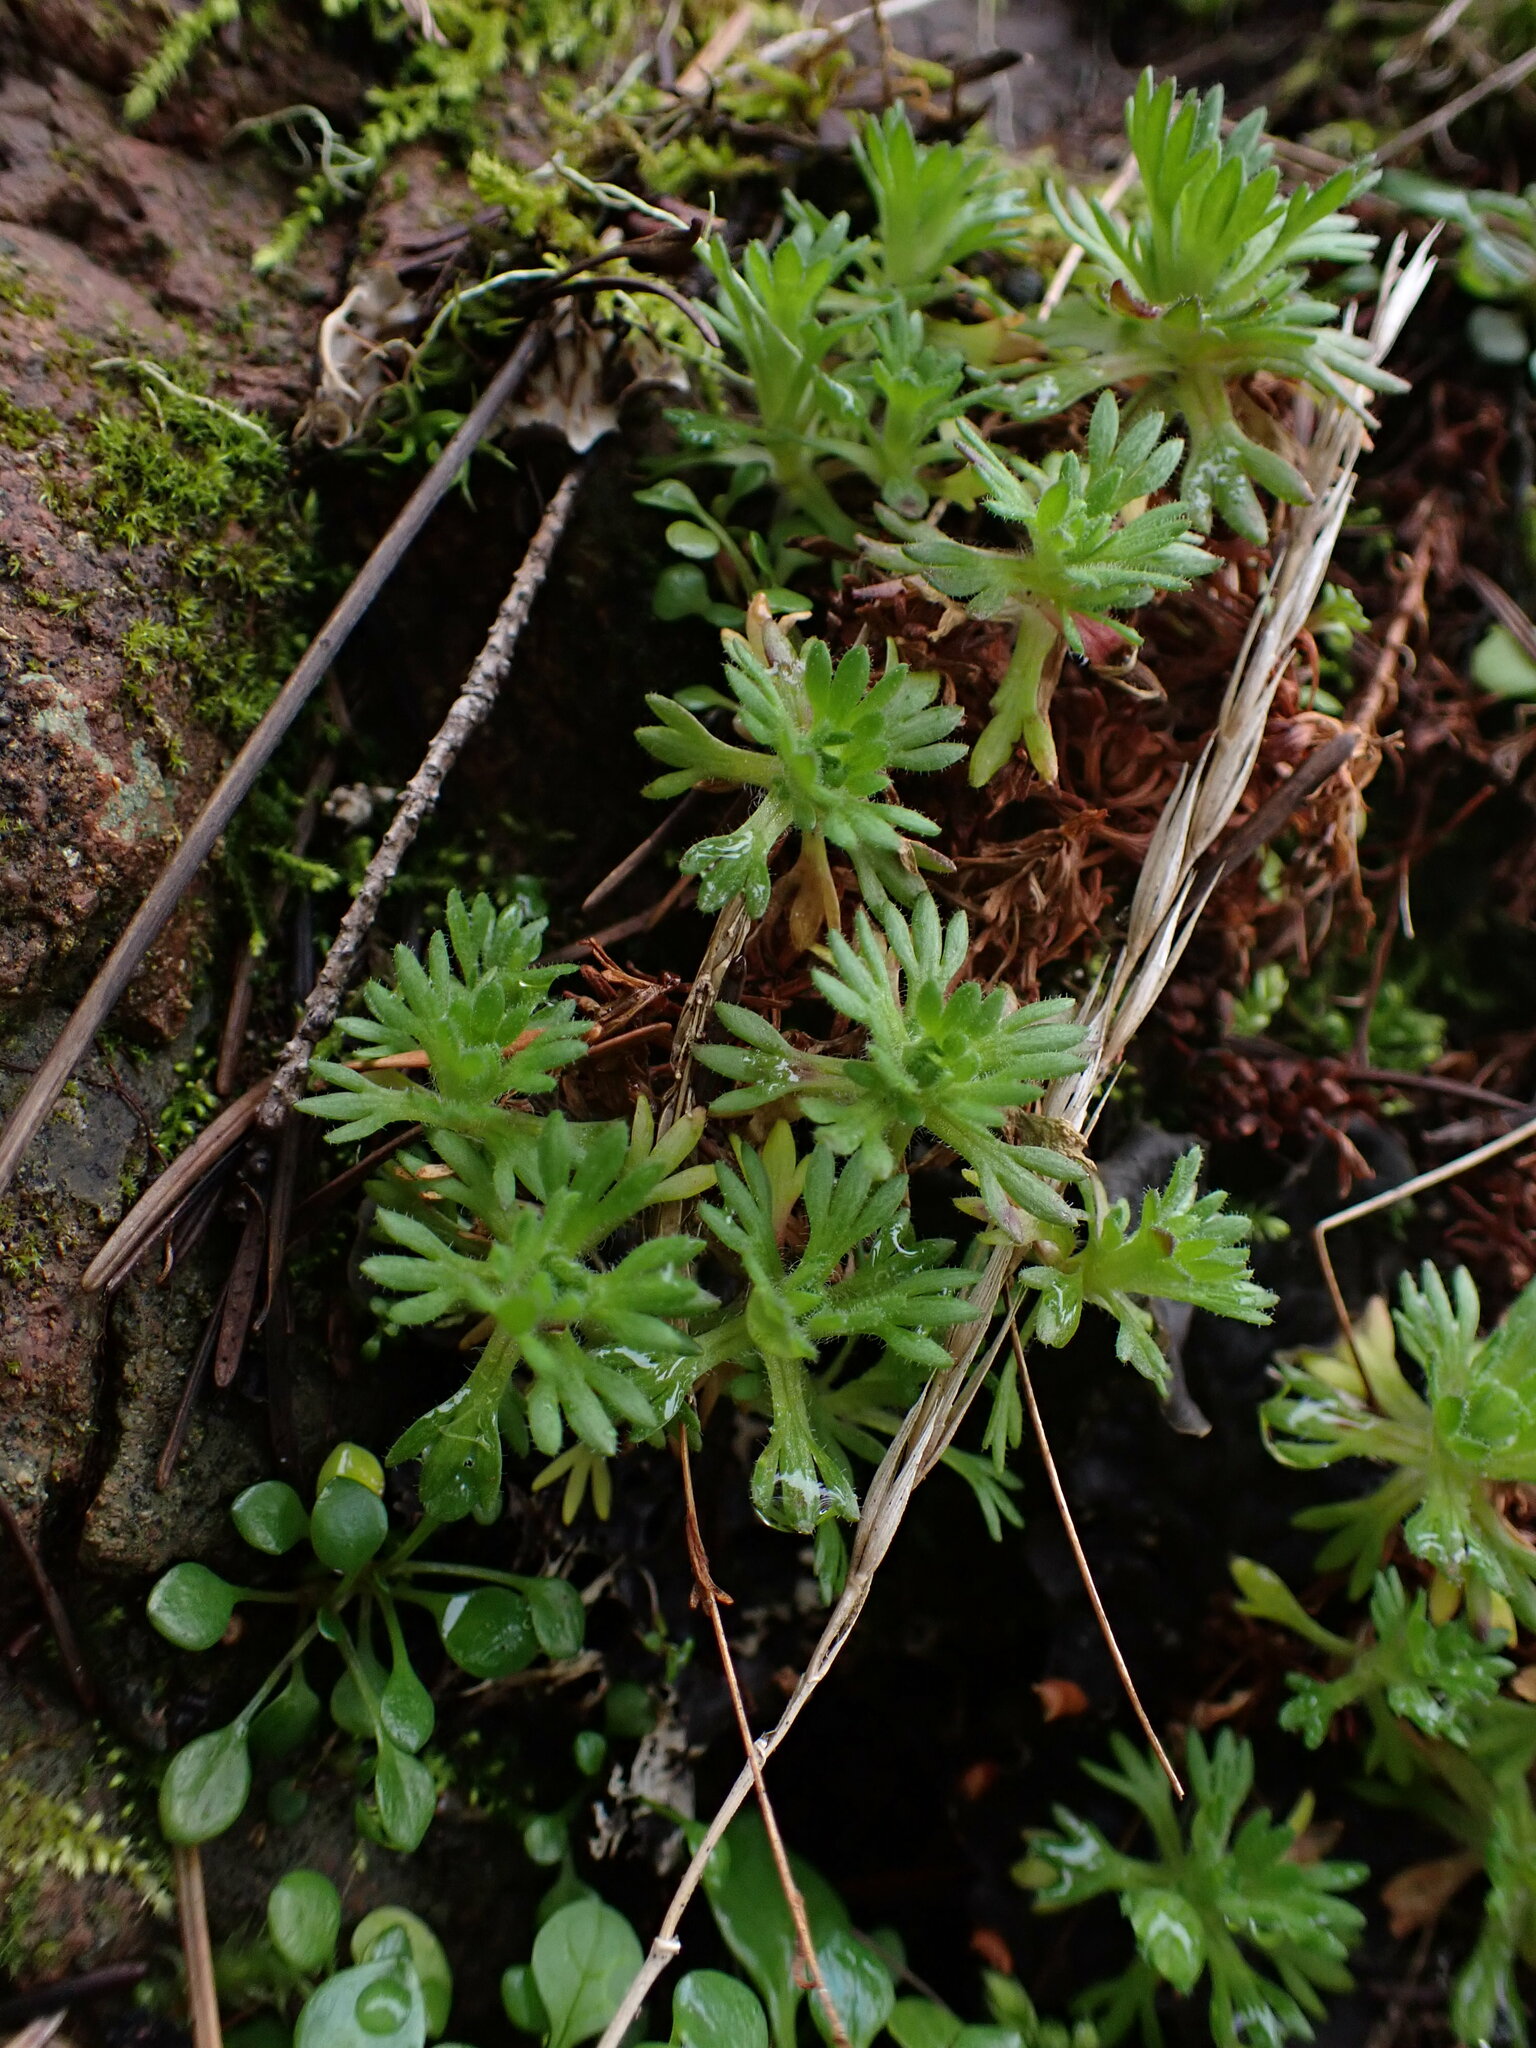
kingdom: Plantae
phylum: Tracheophyta
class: Magnoliopsida
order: Saxifragales
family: Saxifragaceae
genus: Saxifraga
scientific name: Saxifraga cespitosa
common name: Tufted saxifrage
